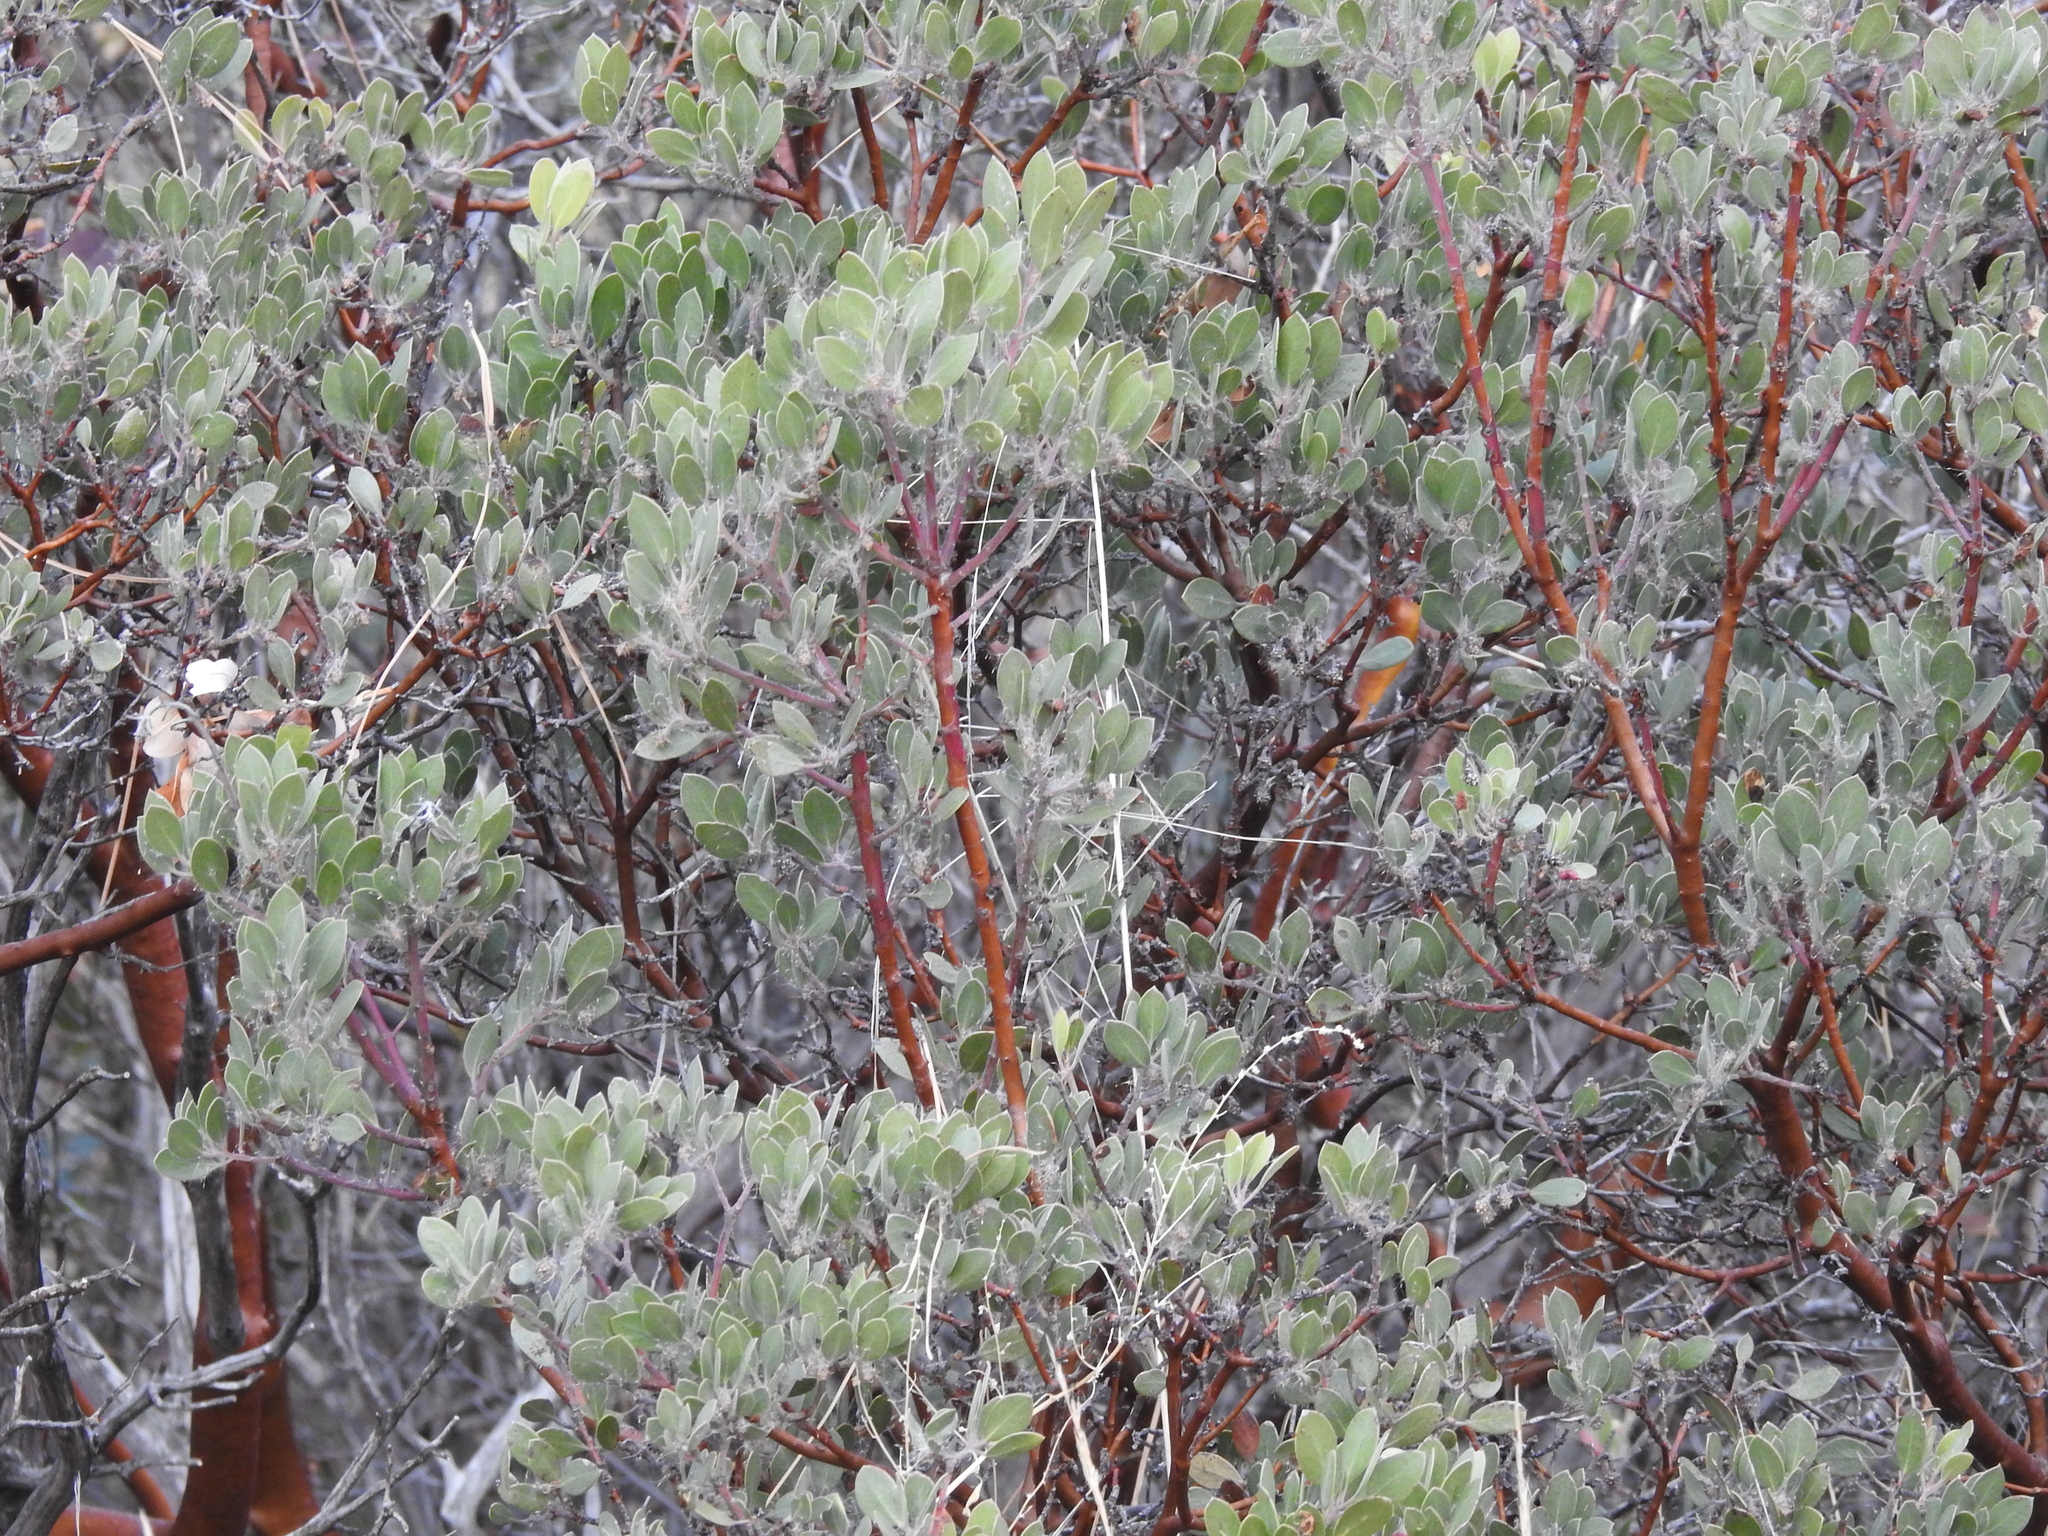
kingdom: Plantae
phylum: Tracheophyta
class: Magnoliopsida
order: Ericales
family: Ericaceae
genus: Arctostaphylos
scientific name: Arctostaphylos pungens
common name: Mexican manzanita
